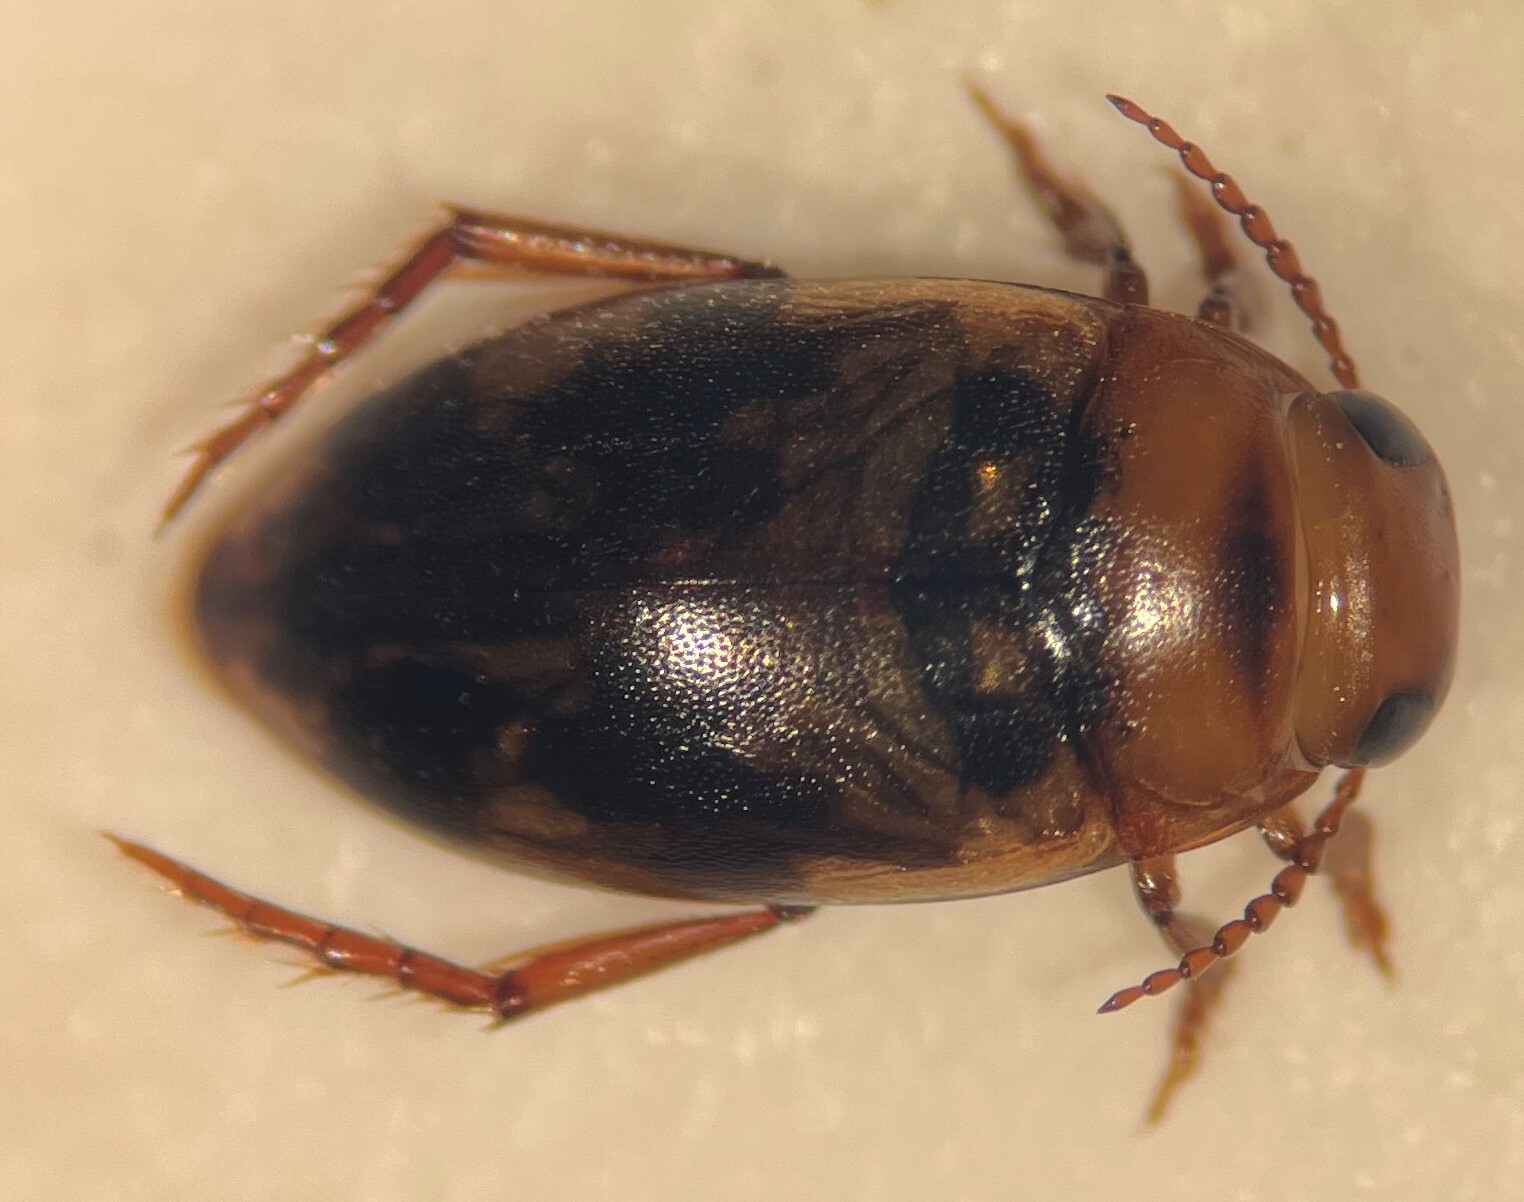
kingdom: Animalia
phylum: Arthropoda
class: Insecta
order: Coleoptera
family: Dytiscidae
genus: Heterosternuta
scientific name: Heterosternuta diversicornis
